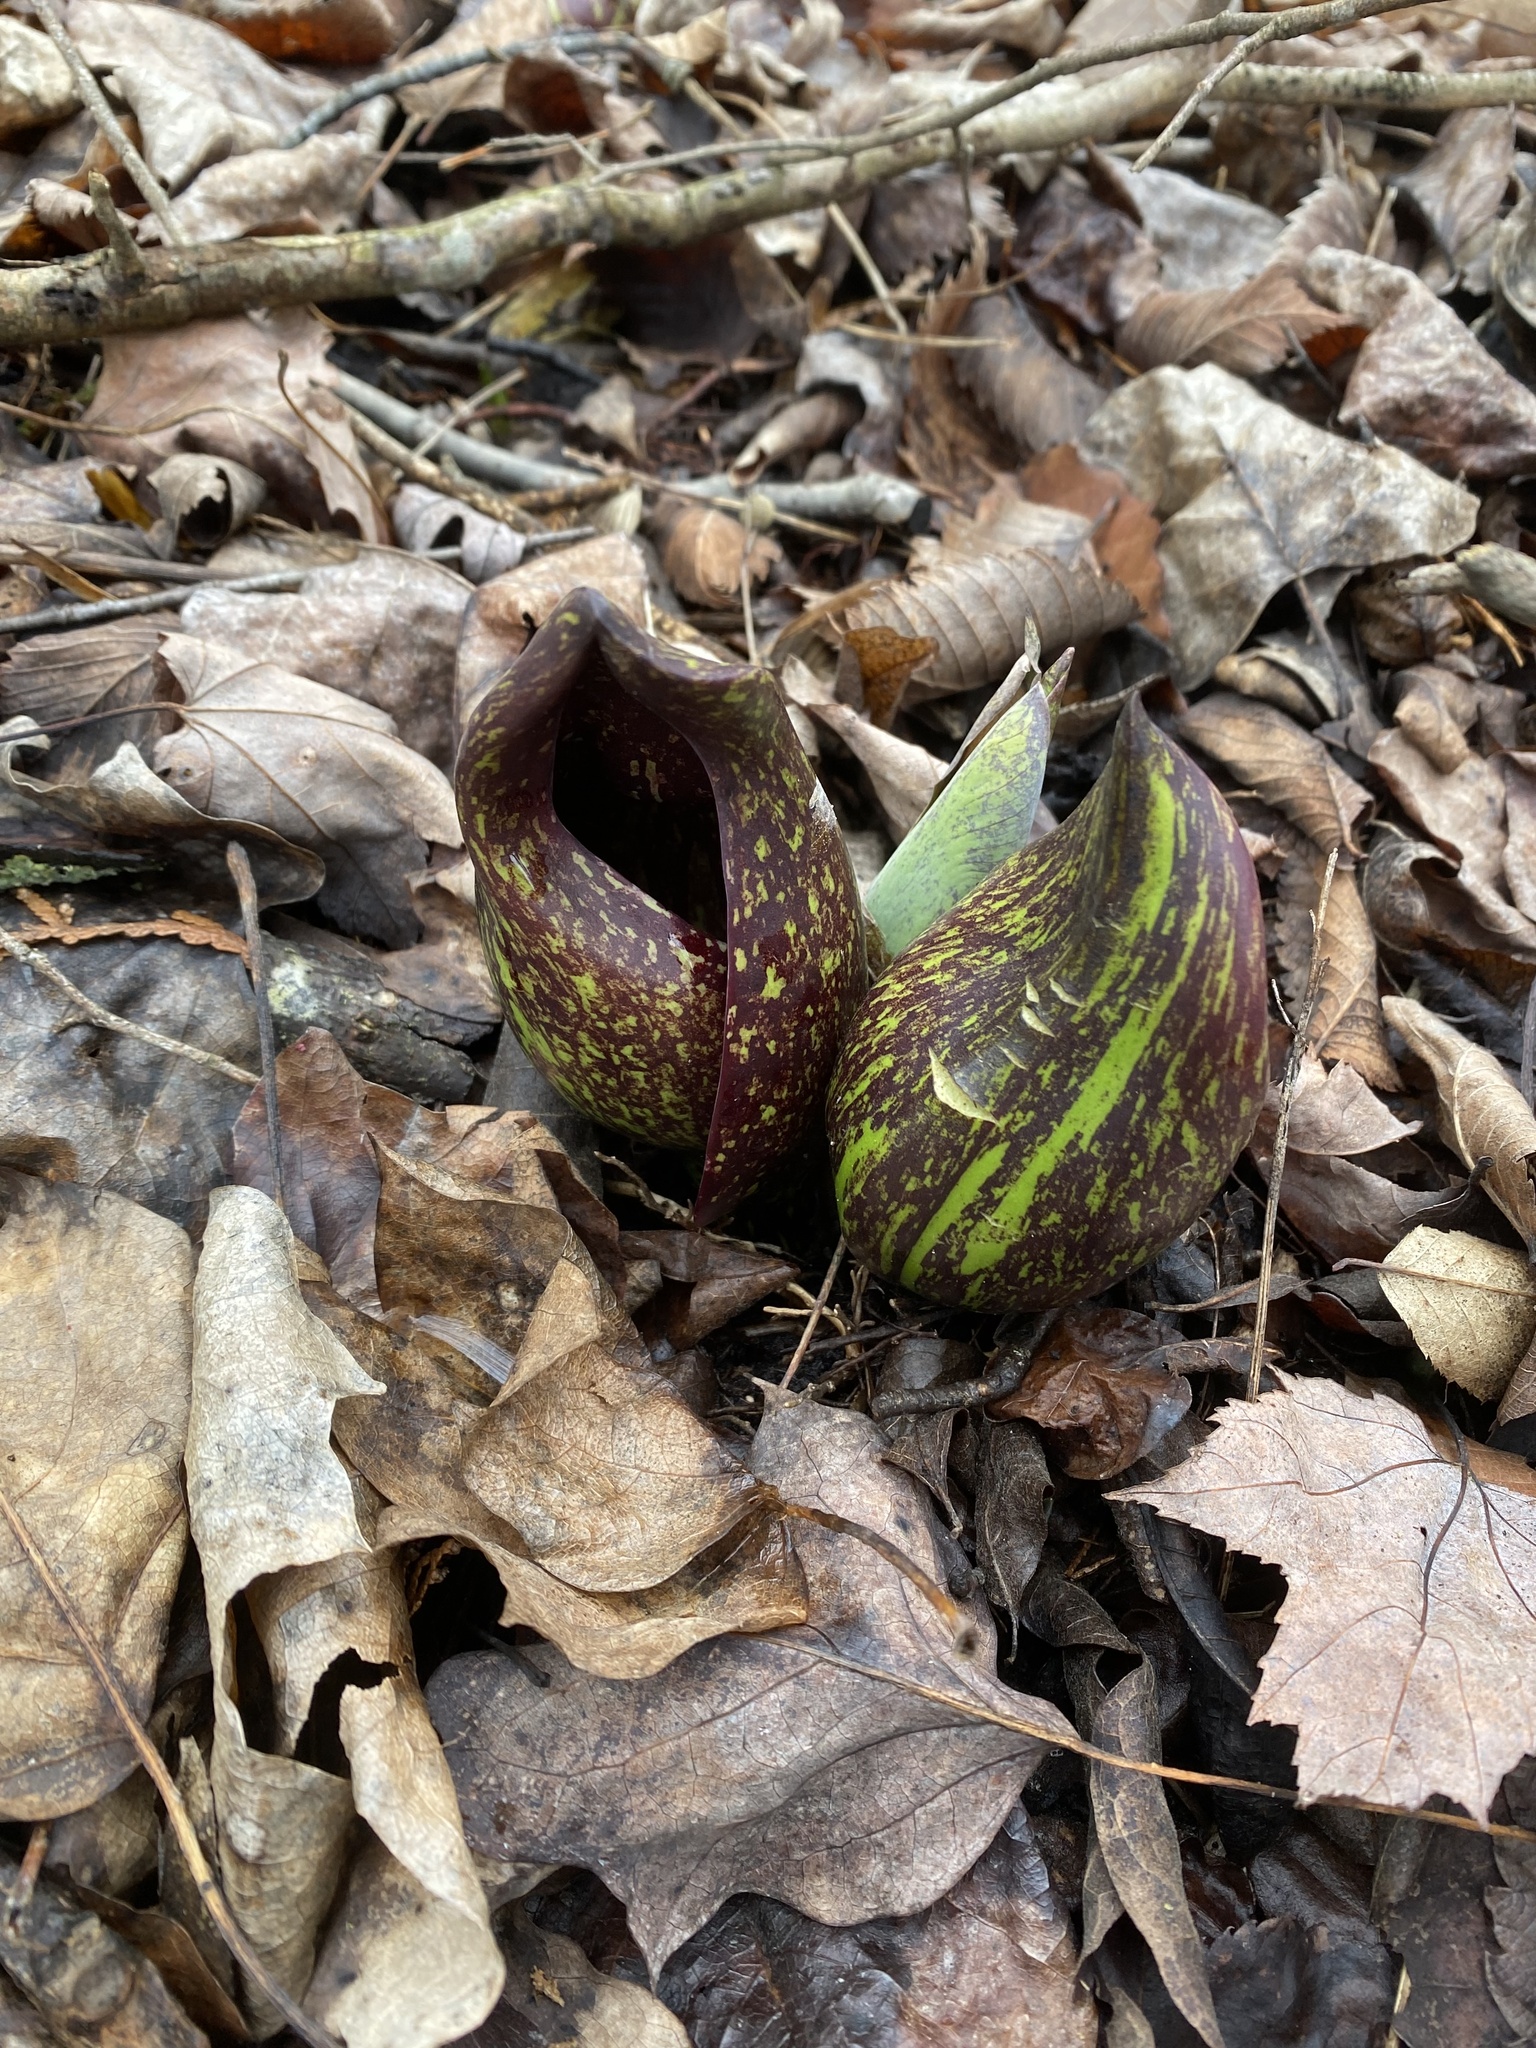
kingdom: Plantae
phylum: Tracheophyta
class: Liliopsida
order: Alismatales
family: Araceae
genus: Symplocarpus
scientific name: Symplocarpus foetidus
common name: Eastern skunk cabbage
